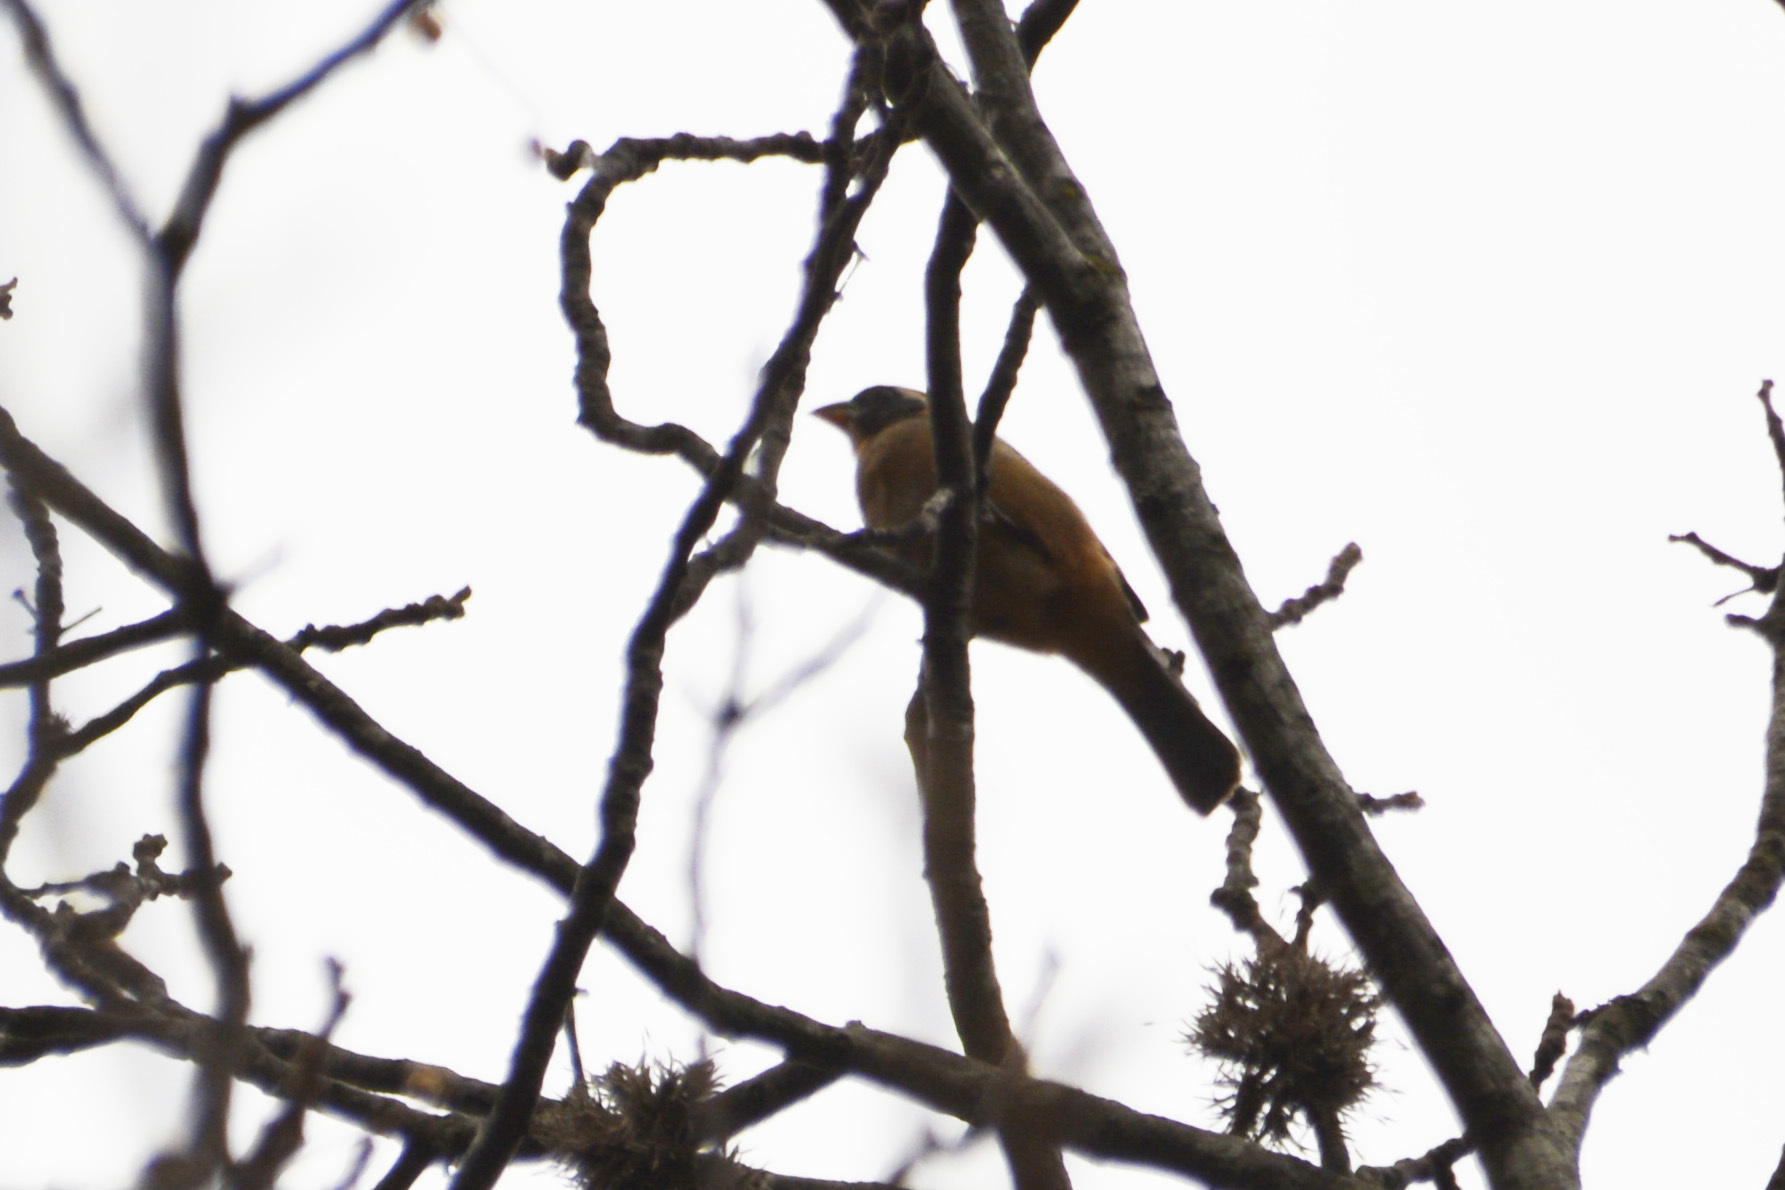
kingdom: Animalia
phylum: Chordata
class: Aves
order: Passeriformes
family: Thraupidae
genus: Saltator
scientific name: Saltator aurantiirostris
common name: Golden-billed saltator
